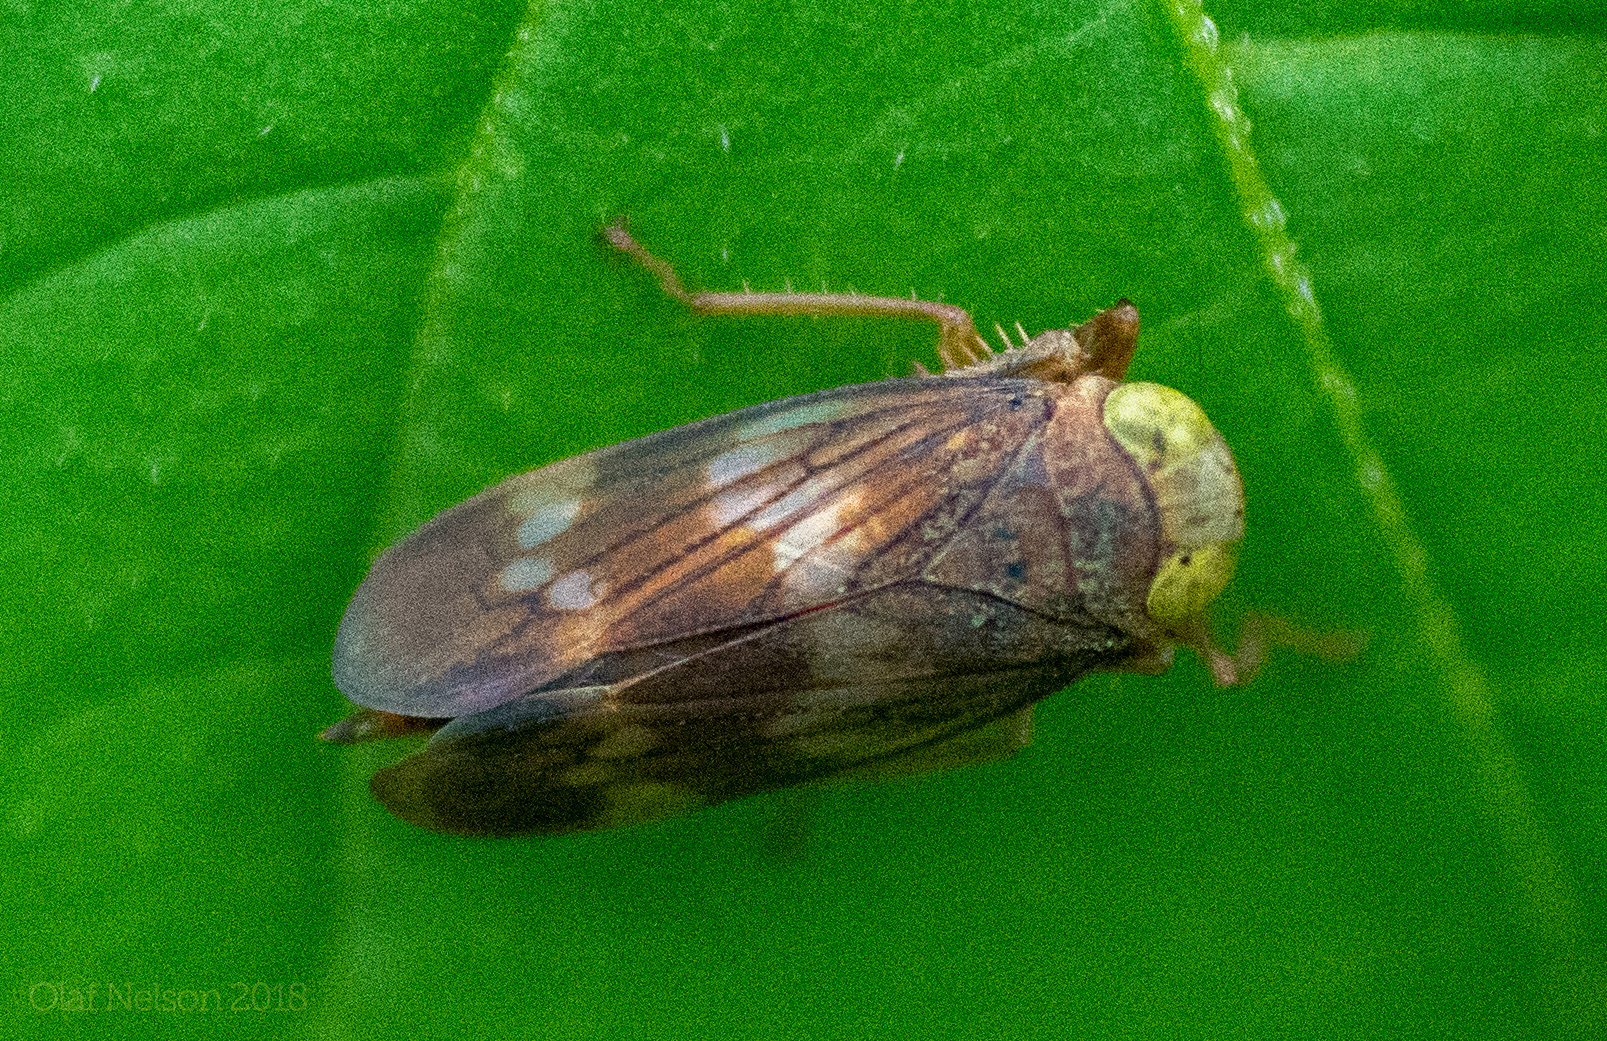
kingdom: Animalia
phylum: Arthropoda
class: Insecta
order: Hemiptera
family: Cicadellidae
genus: Jikradia
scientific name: Jikradia olitoria
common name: Coppery leafhopper
